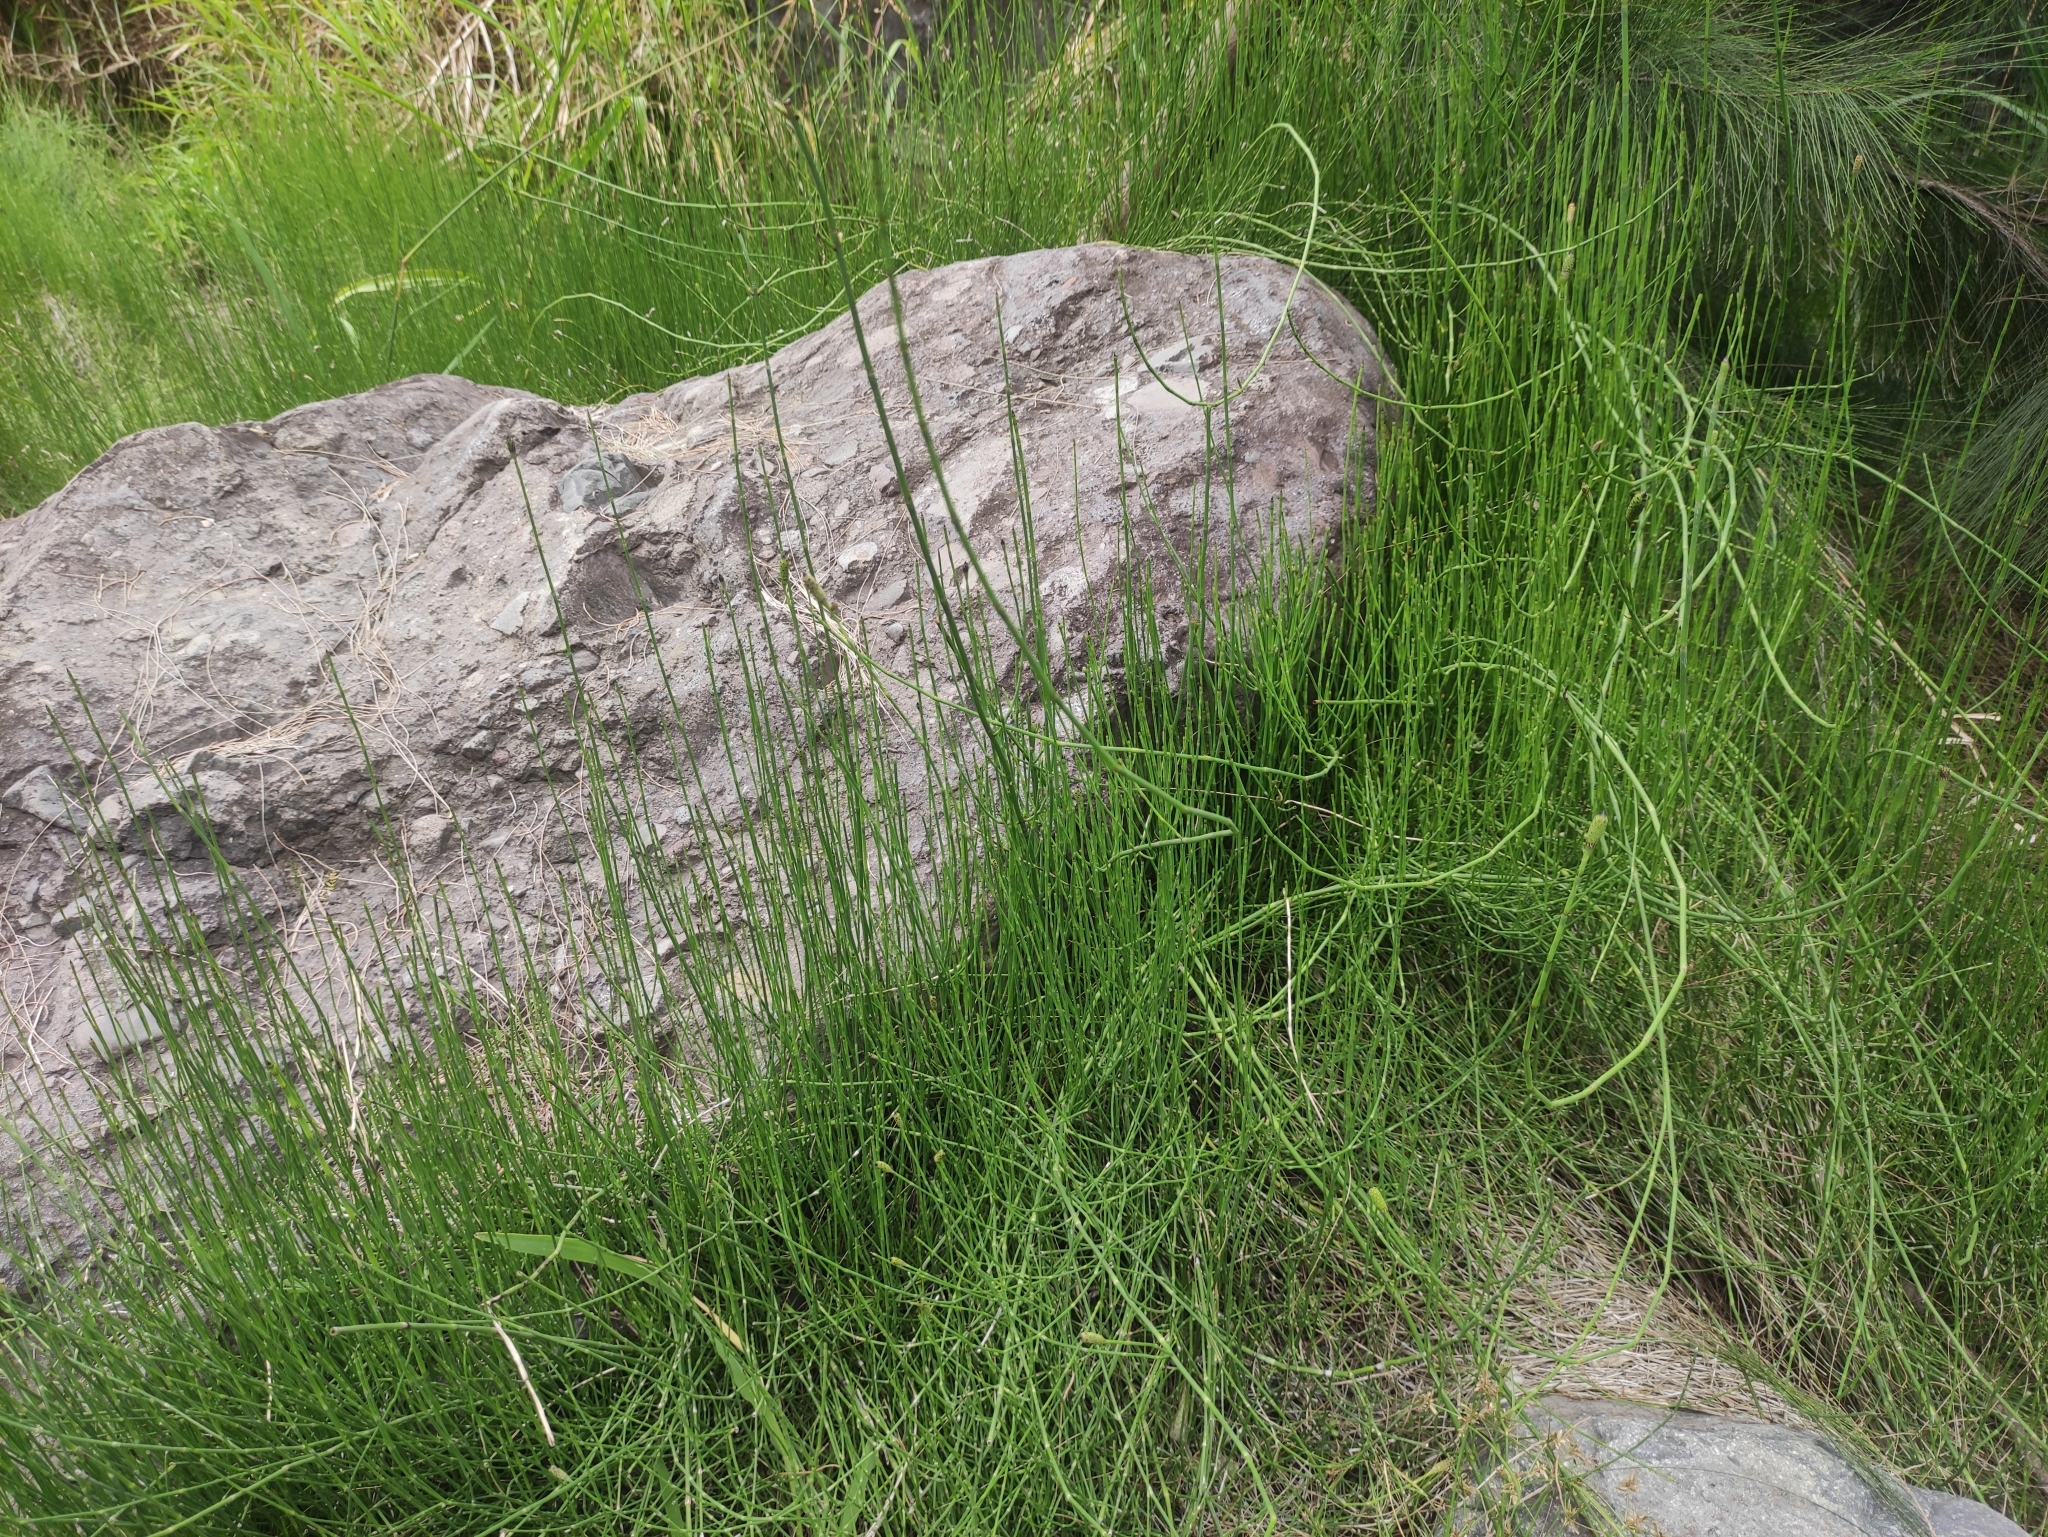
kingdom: Plantae
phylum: Tracheophyta
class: Polypodiopsida
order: Equisetales
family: Equisetaceae
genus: Equisetum
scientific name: Equisetum ramosissimum
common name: Branched horsetail
